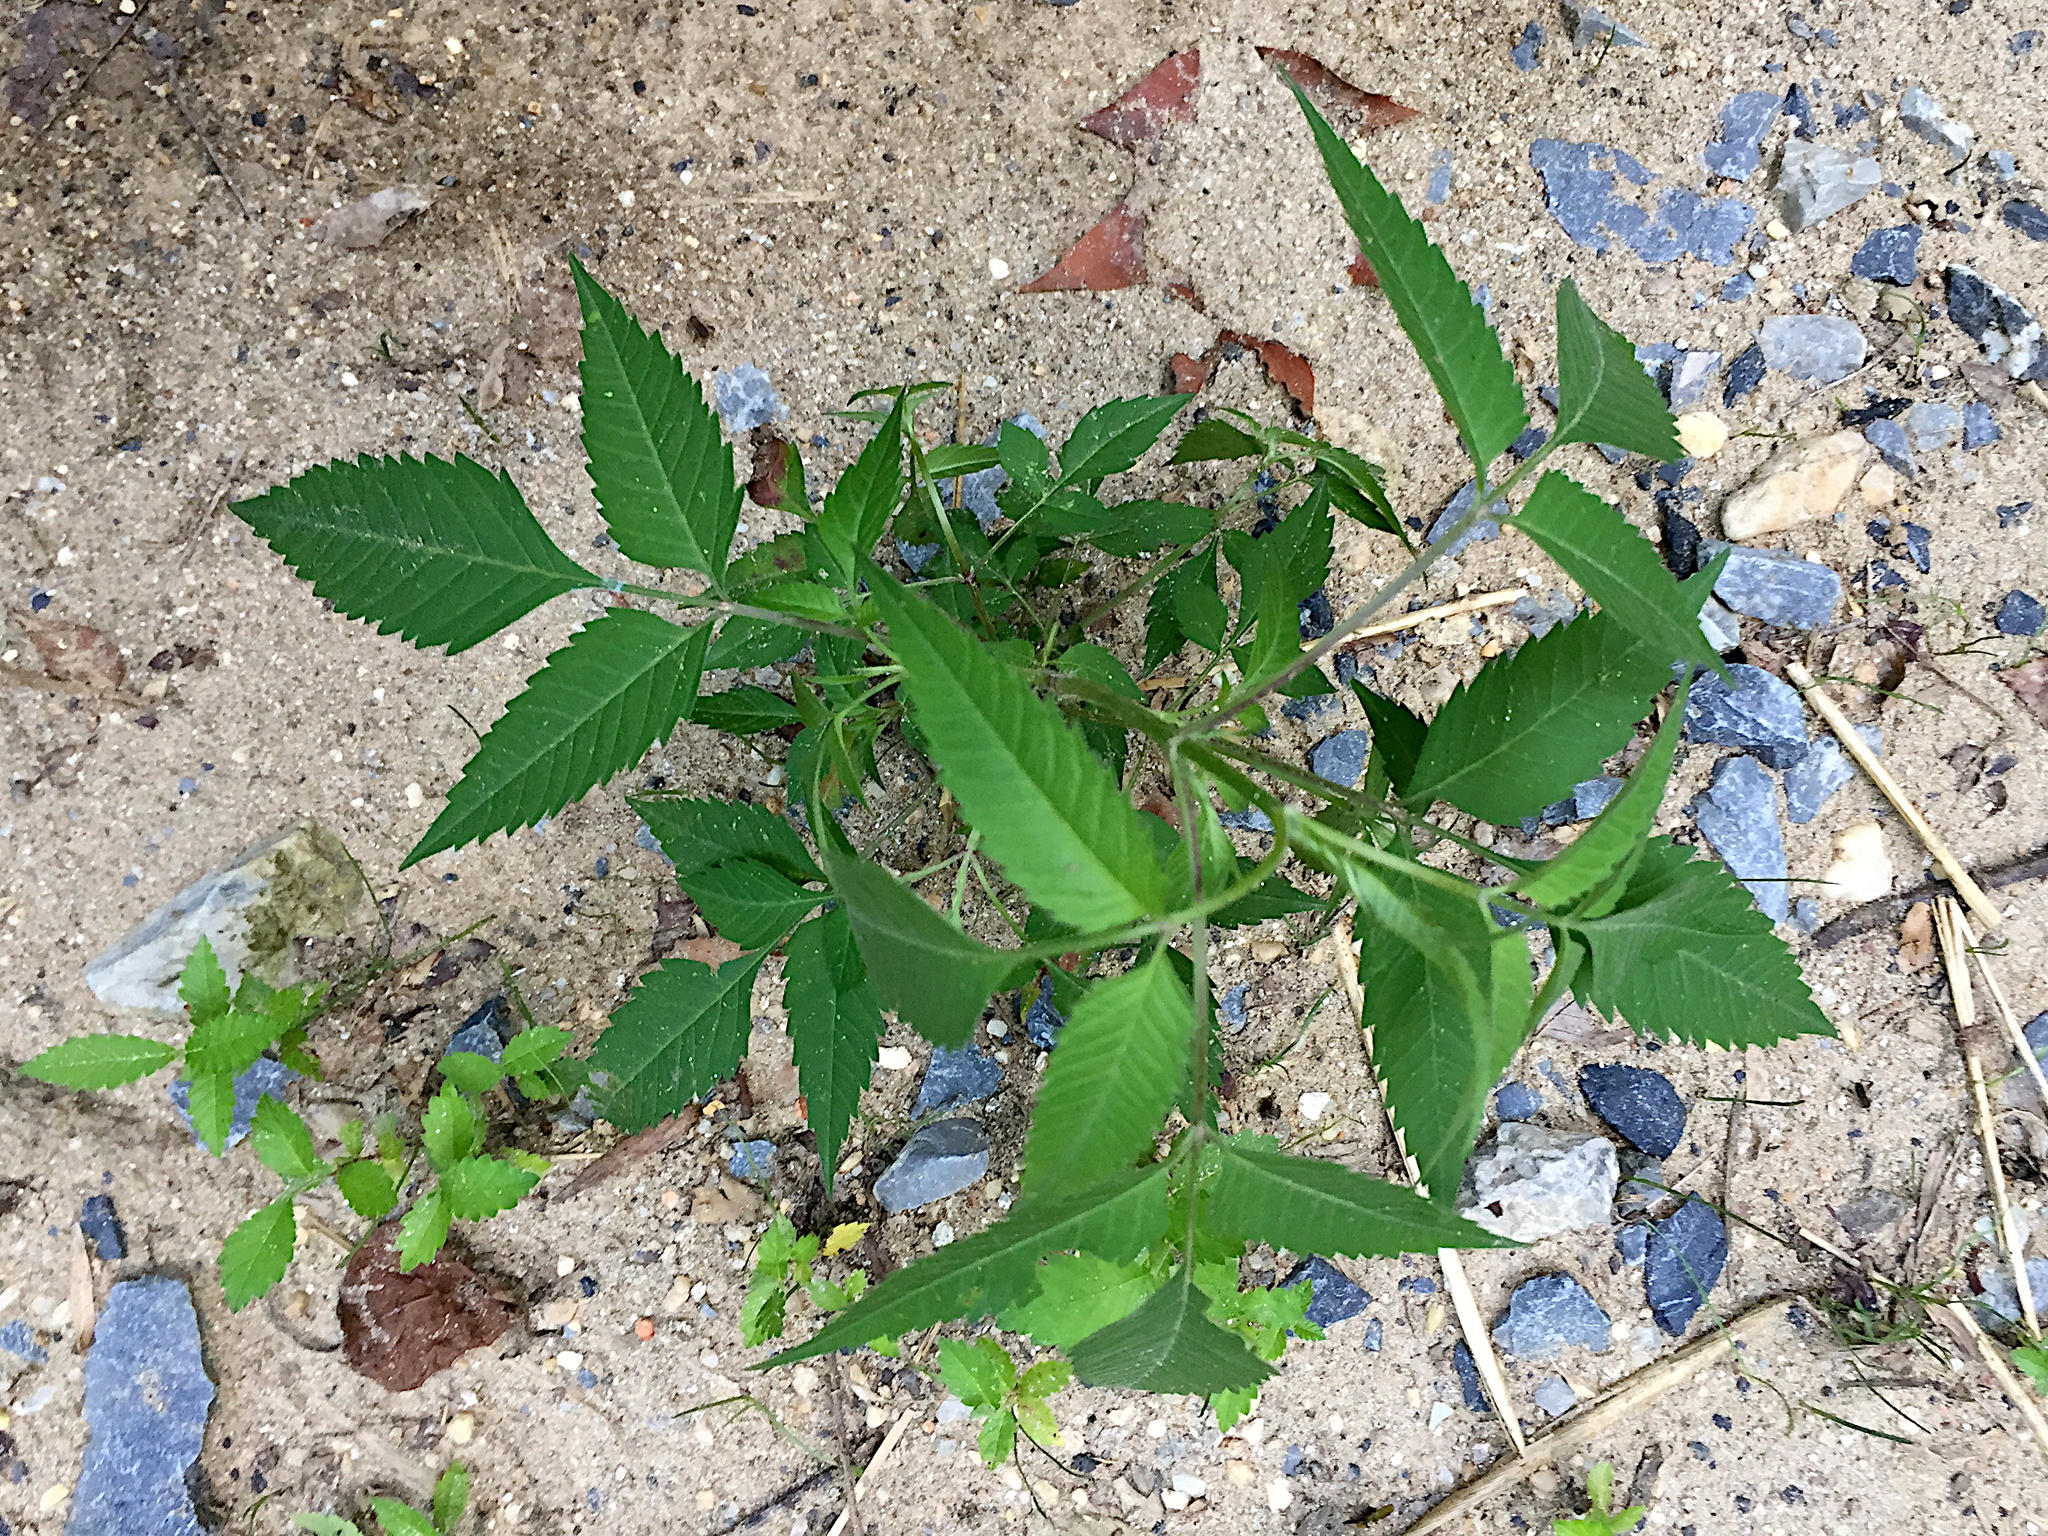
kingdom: Plantae
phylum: Tracheophyta
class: Magnoliopsida
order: Asterales
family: Asteraceae
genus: Bidens
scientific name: Bidens frondosa
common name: Beggarticks
